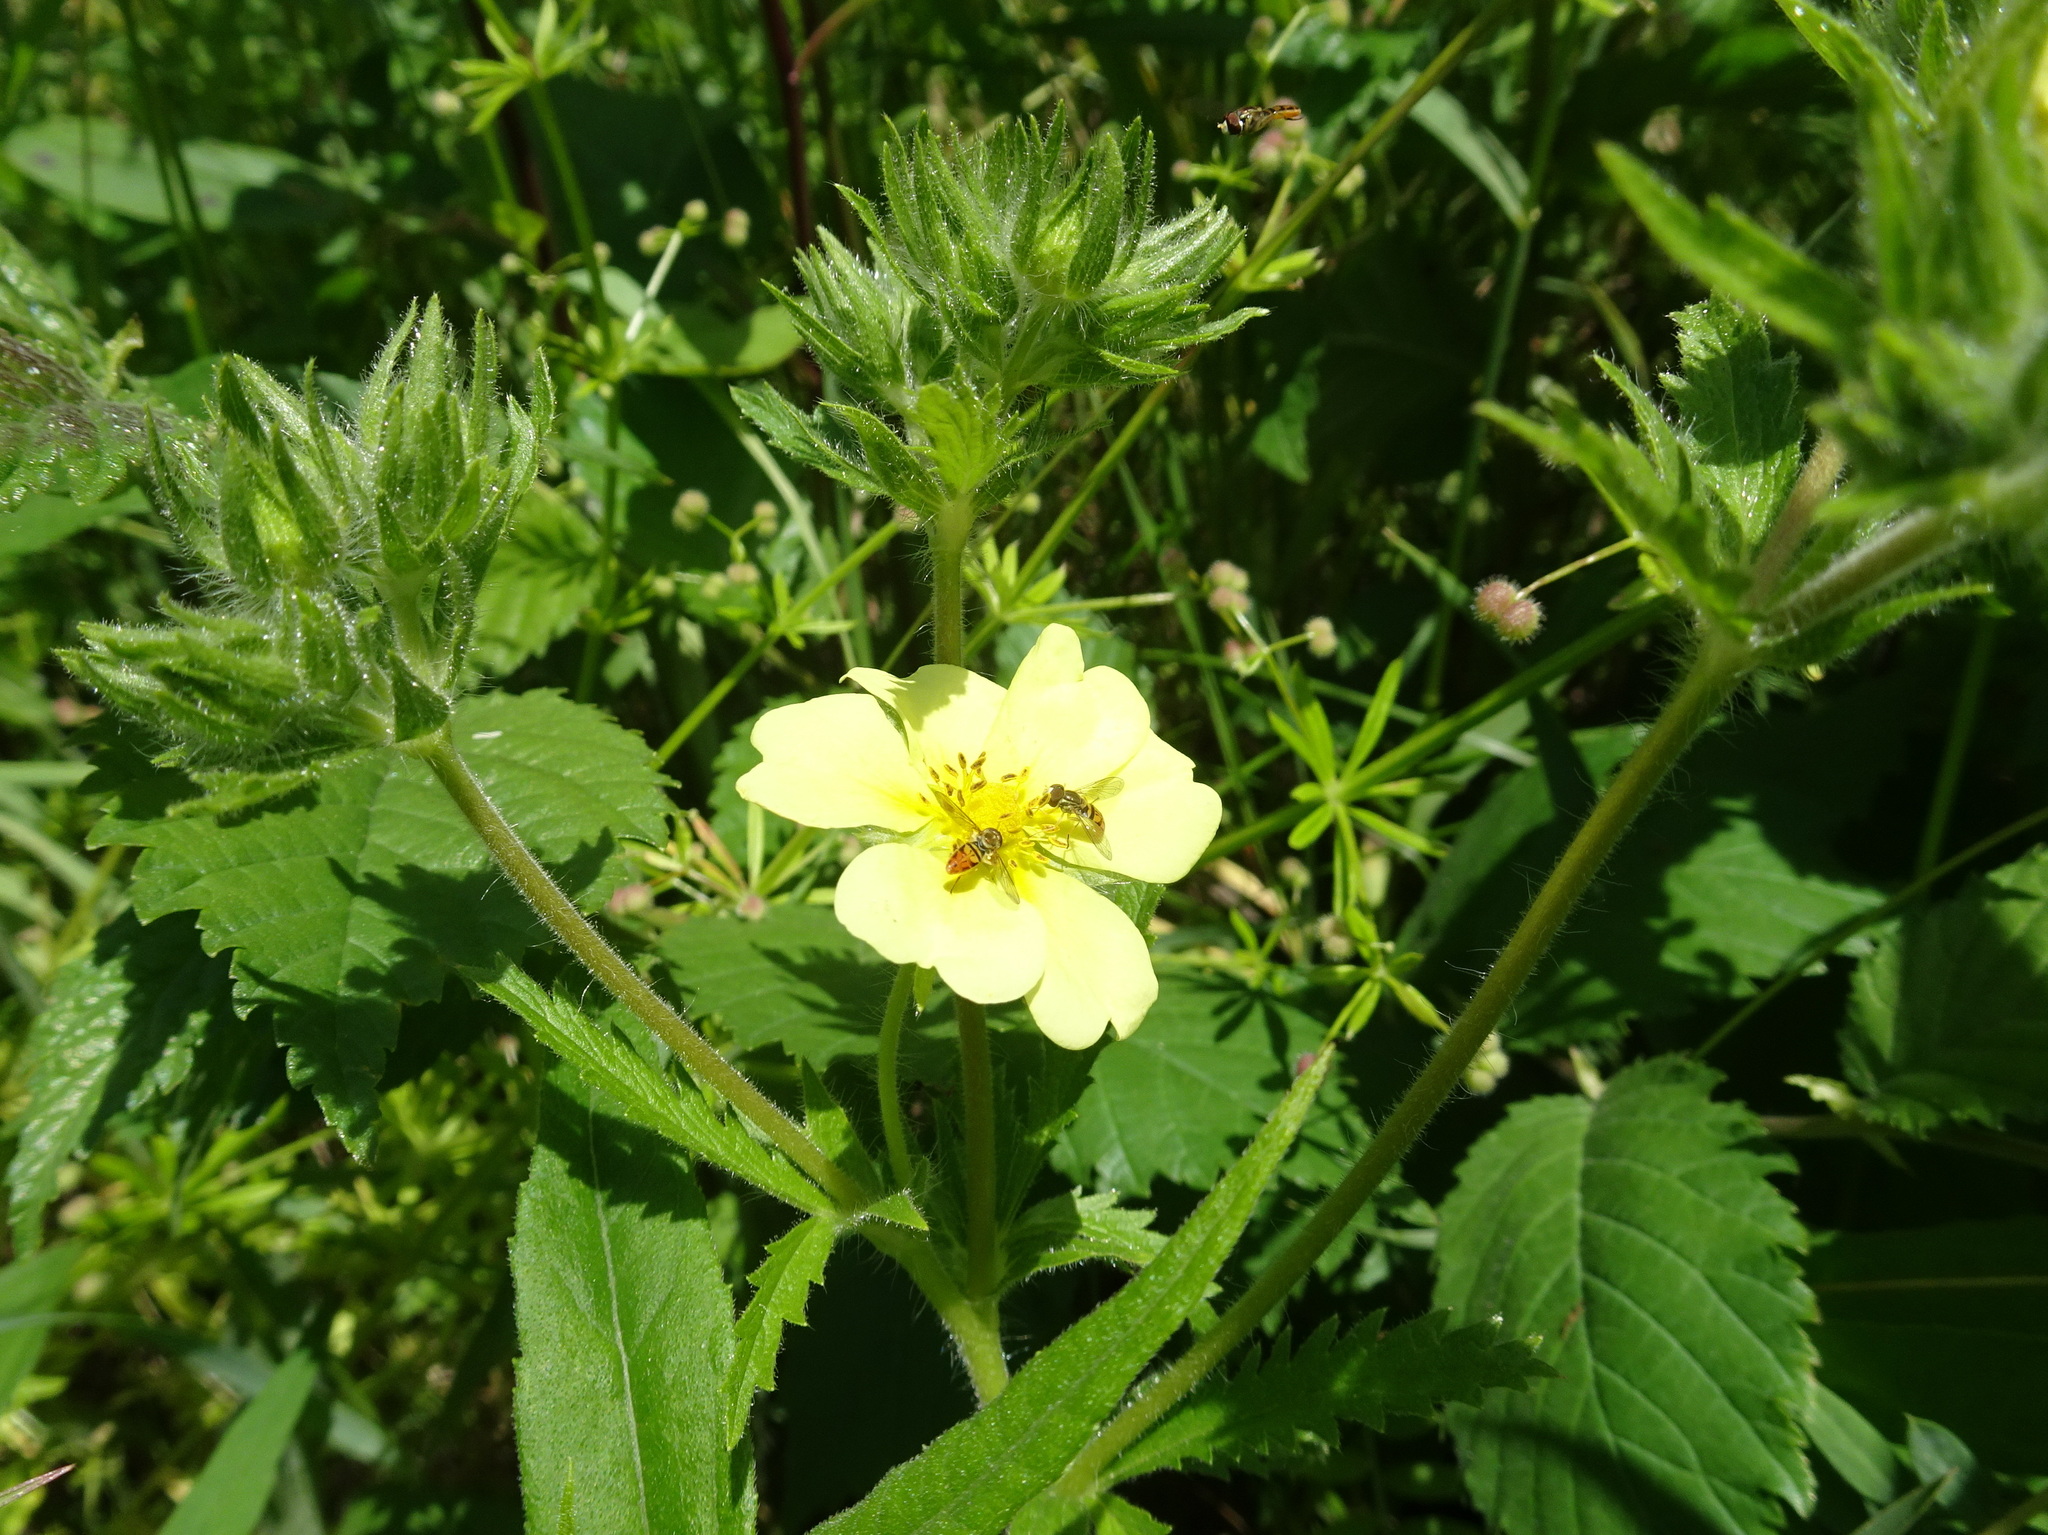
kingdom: Plantae
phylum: Tracheophyta
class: Magnoliopsida
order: Rosales
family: Rosaceae
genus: Potentilla
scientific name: Potentilla recta
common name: Sulphur cinquefoil
